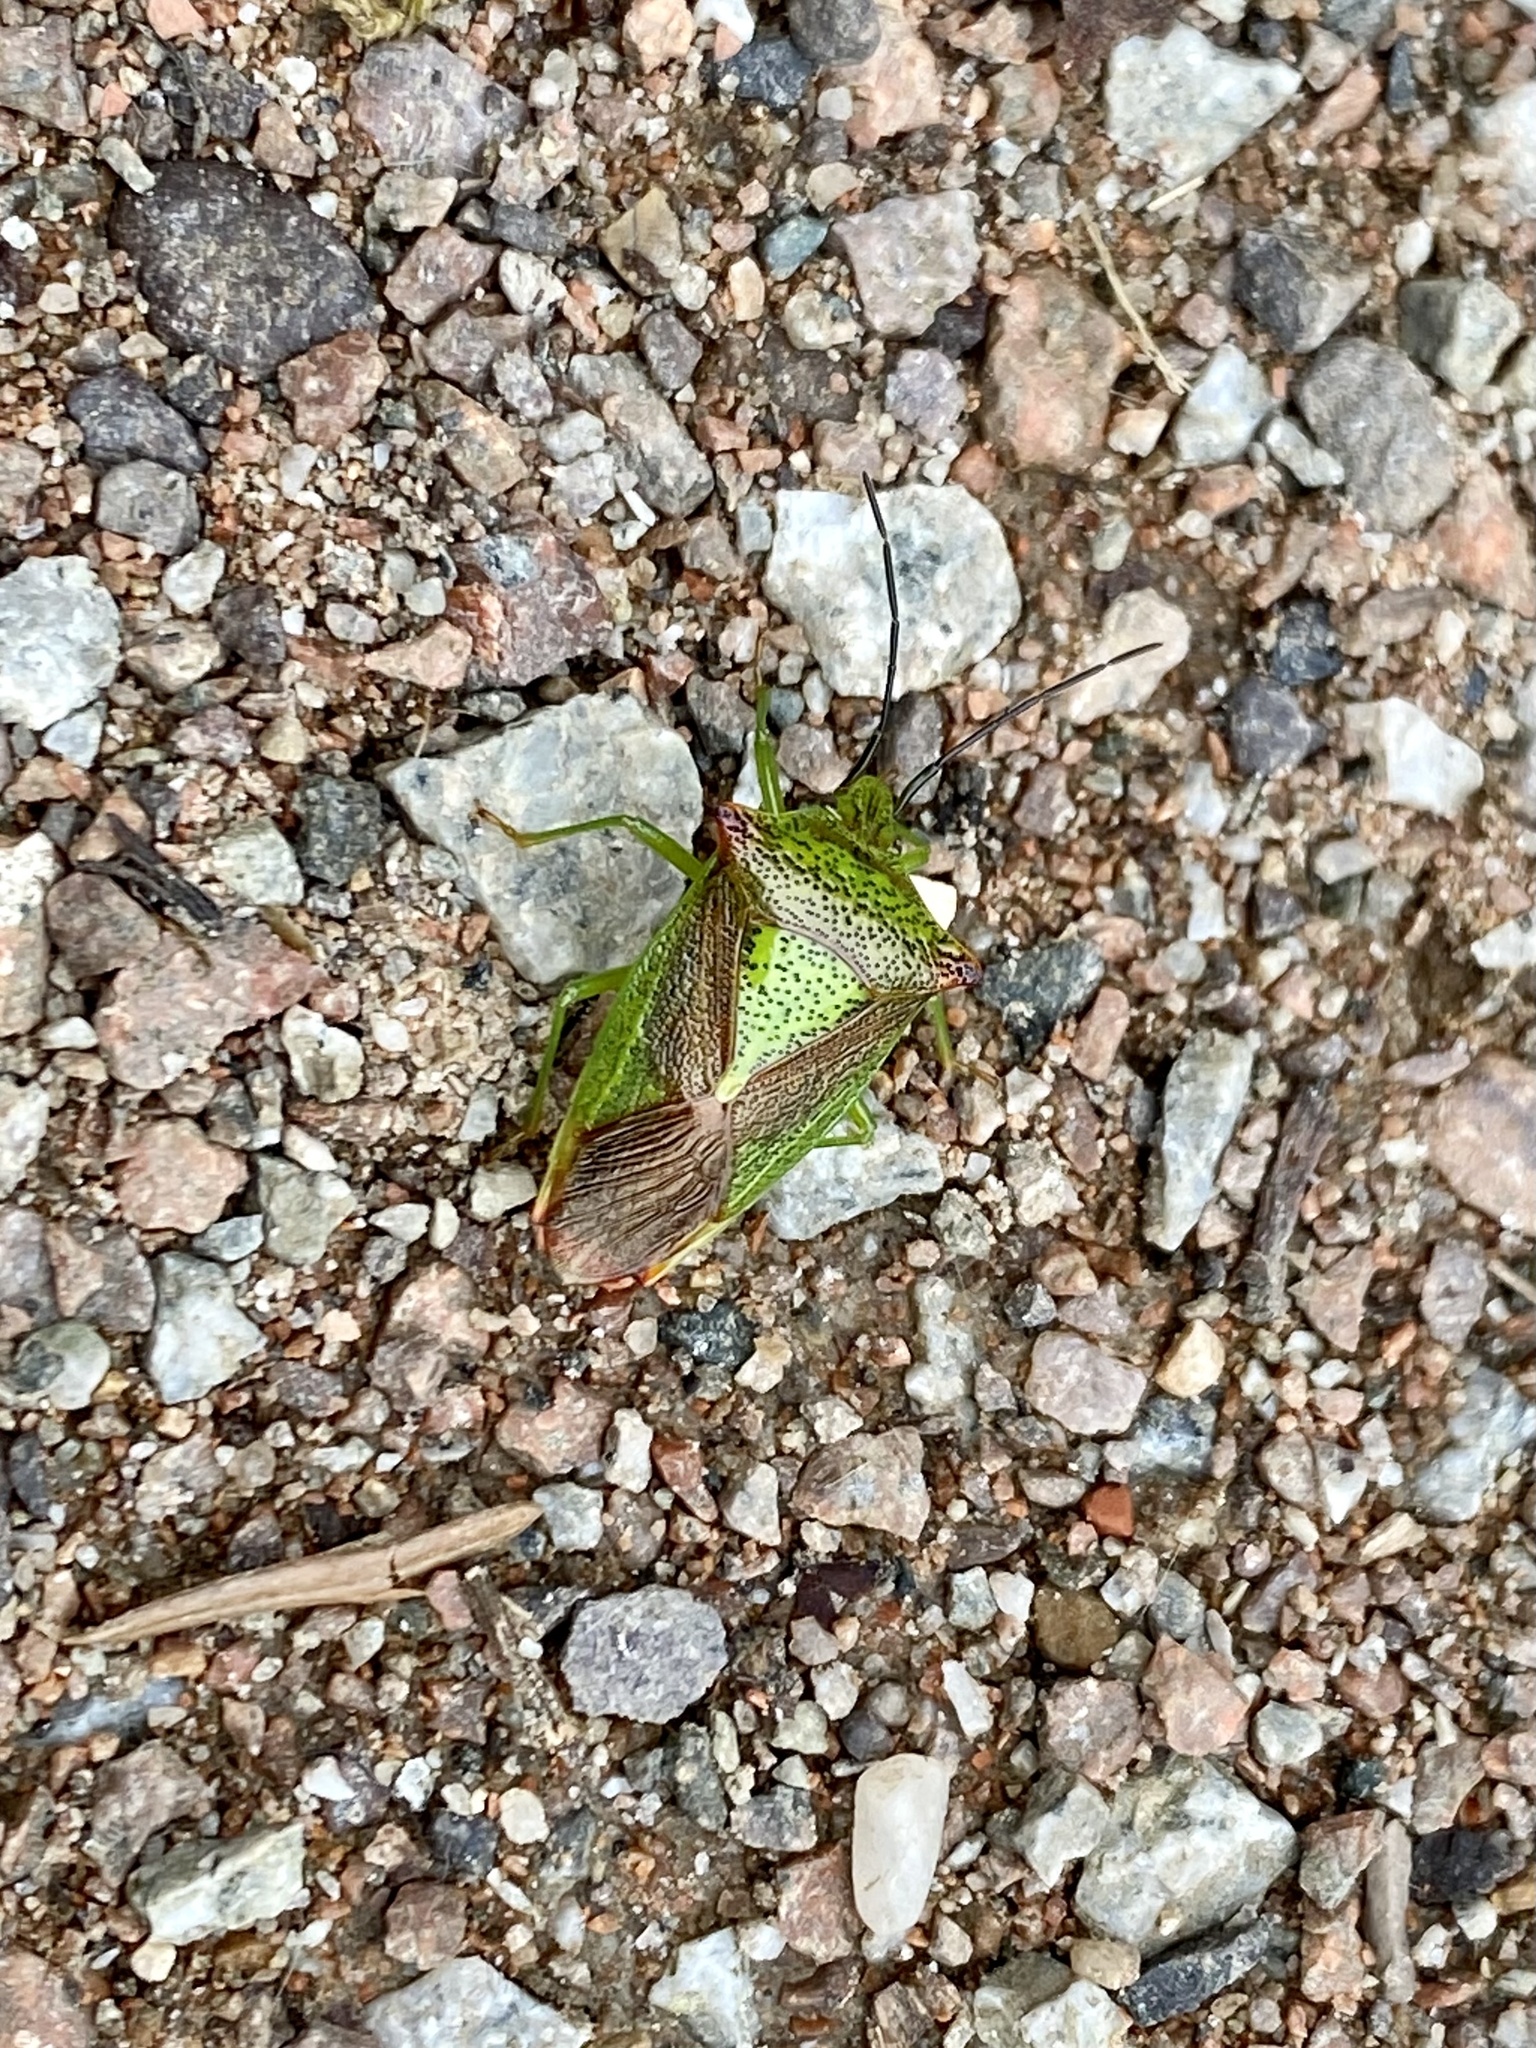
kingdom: Animalia
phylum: Arthropoda
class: Insecta
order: Hemiptera
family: Acanthosomatidae
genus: Acanthosoma
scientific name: Acanthosoma haemorrhoidale
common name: Hawthorn shieldbug
